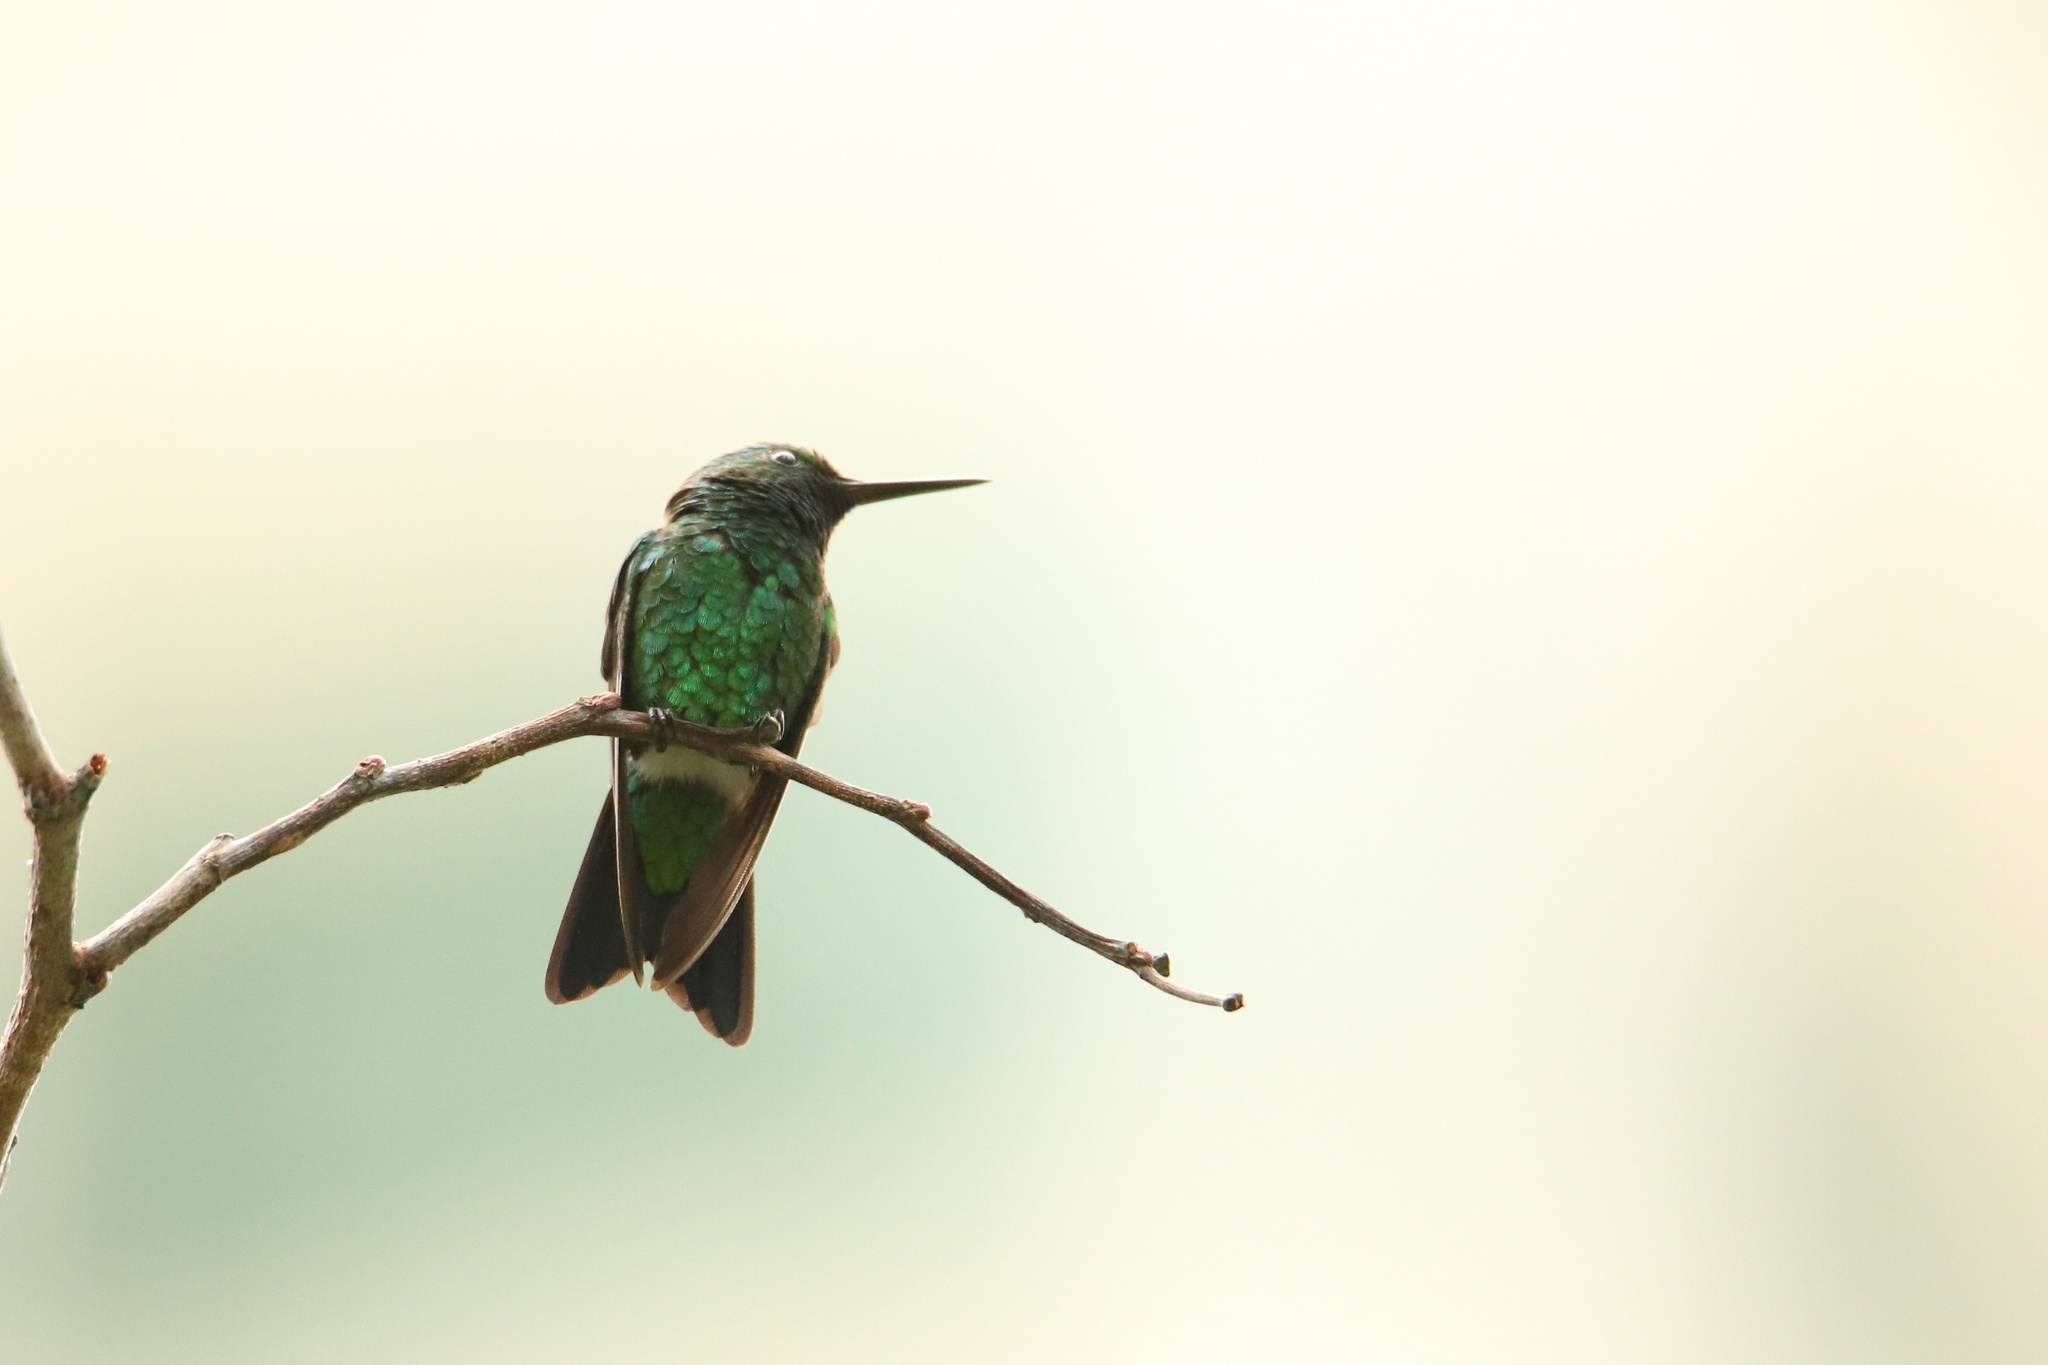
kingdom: Animalia
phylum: Chordata
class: Aves
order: Apodiformes
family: Trochilidae
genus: Chlorostilbon
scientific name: Chlorostilbon assimilis
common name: Garden emerald
